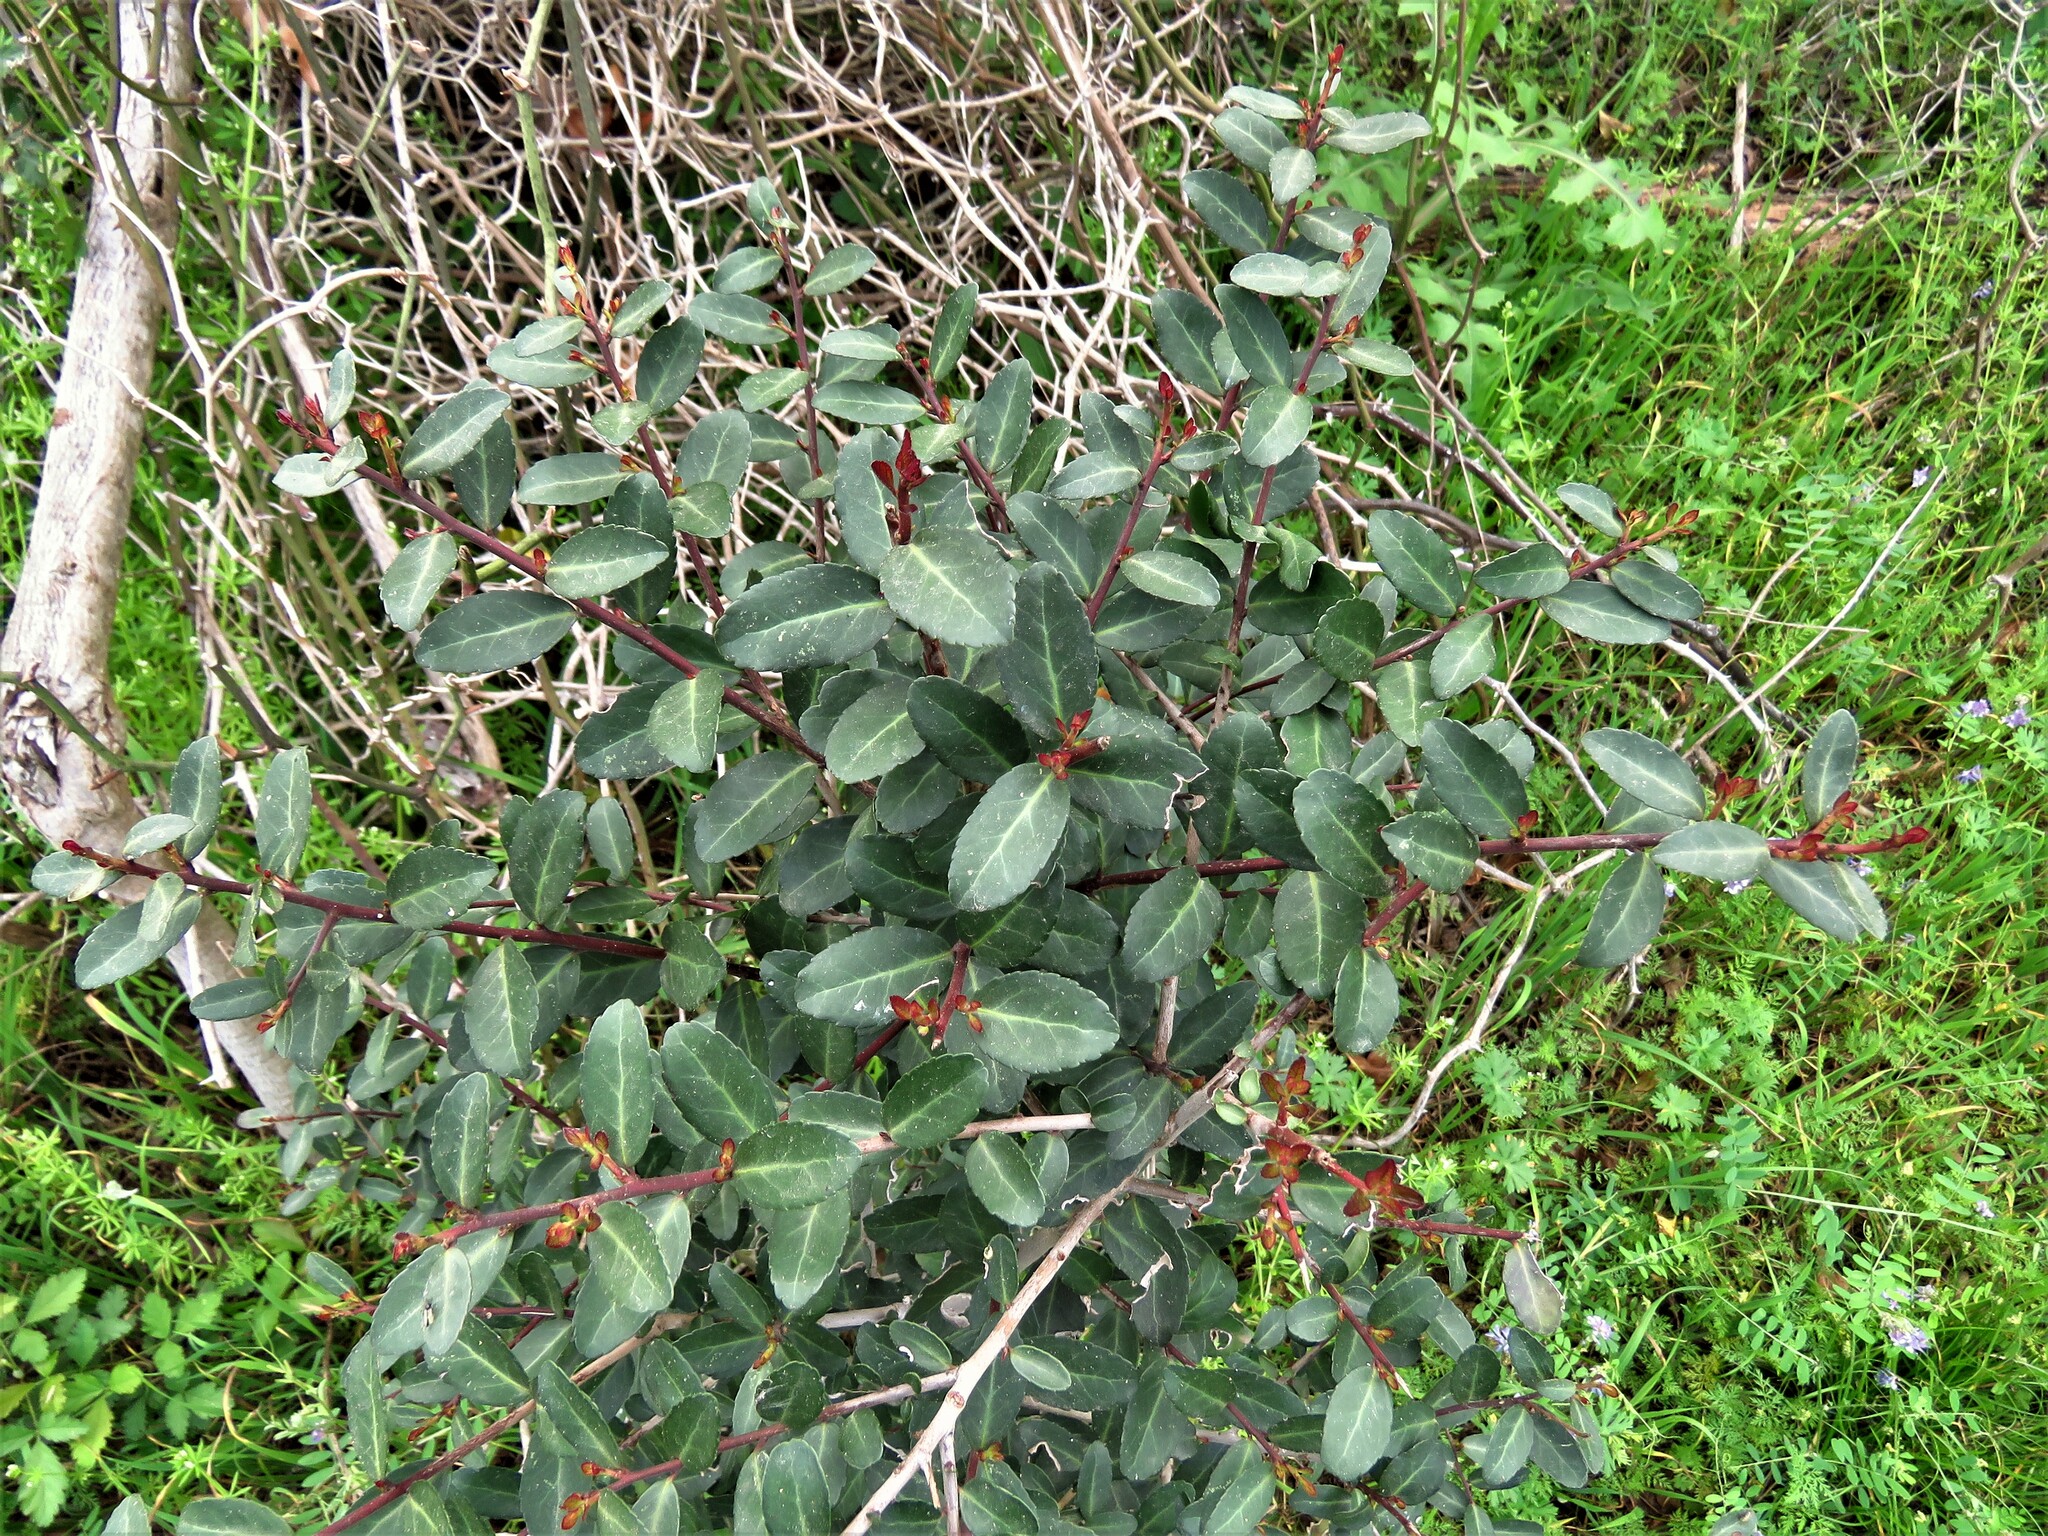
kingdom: Plantae
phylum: Tracheophyta
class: Magnoliopsida
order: Aquifoliales
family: Aquifoliaceae
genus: Ilex
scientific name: Ilex vomitoria
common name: Yaupon holly
